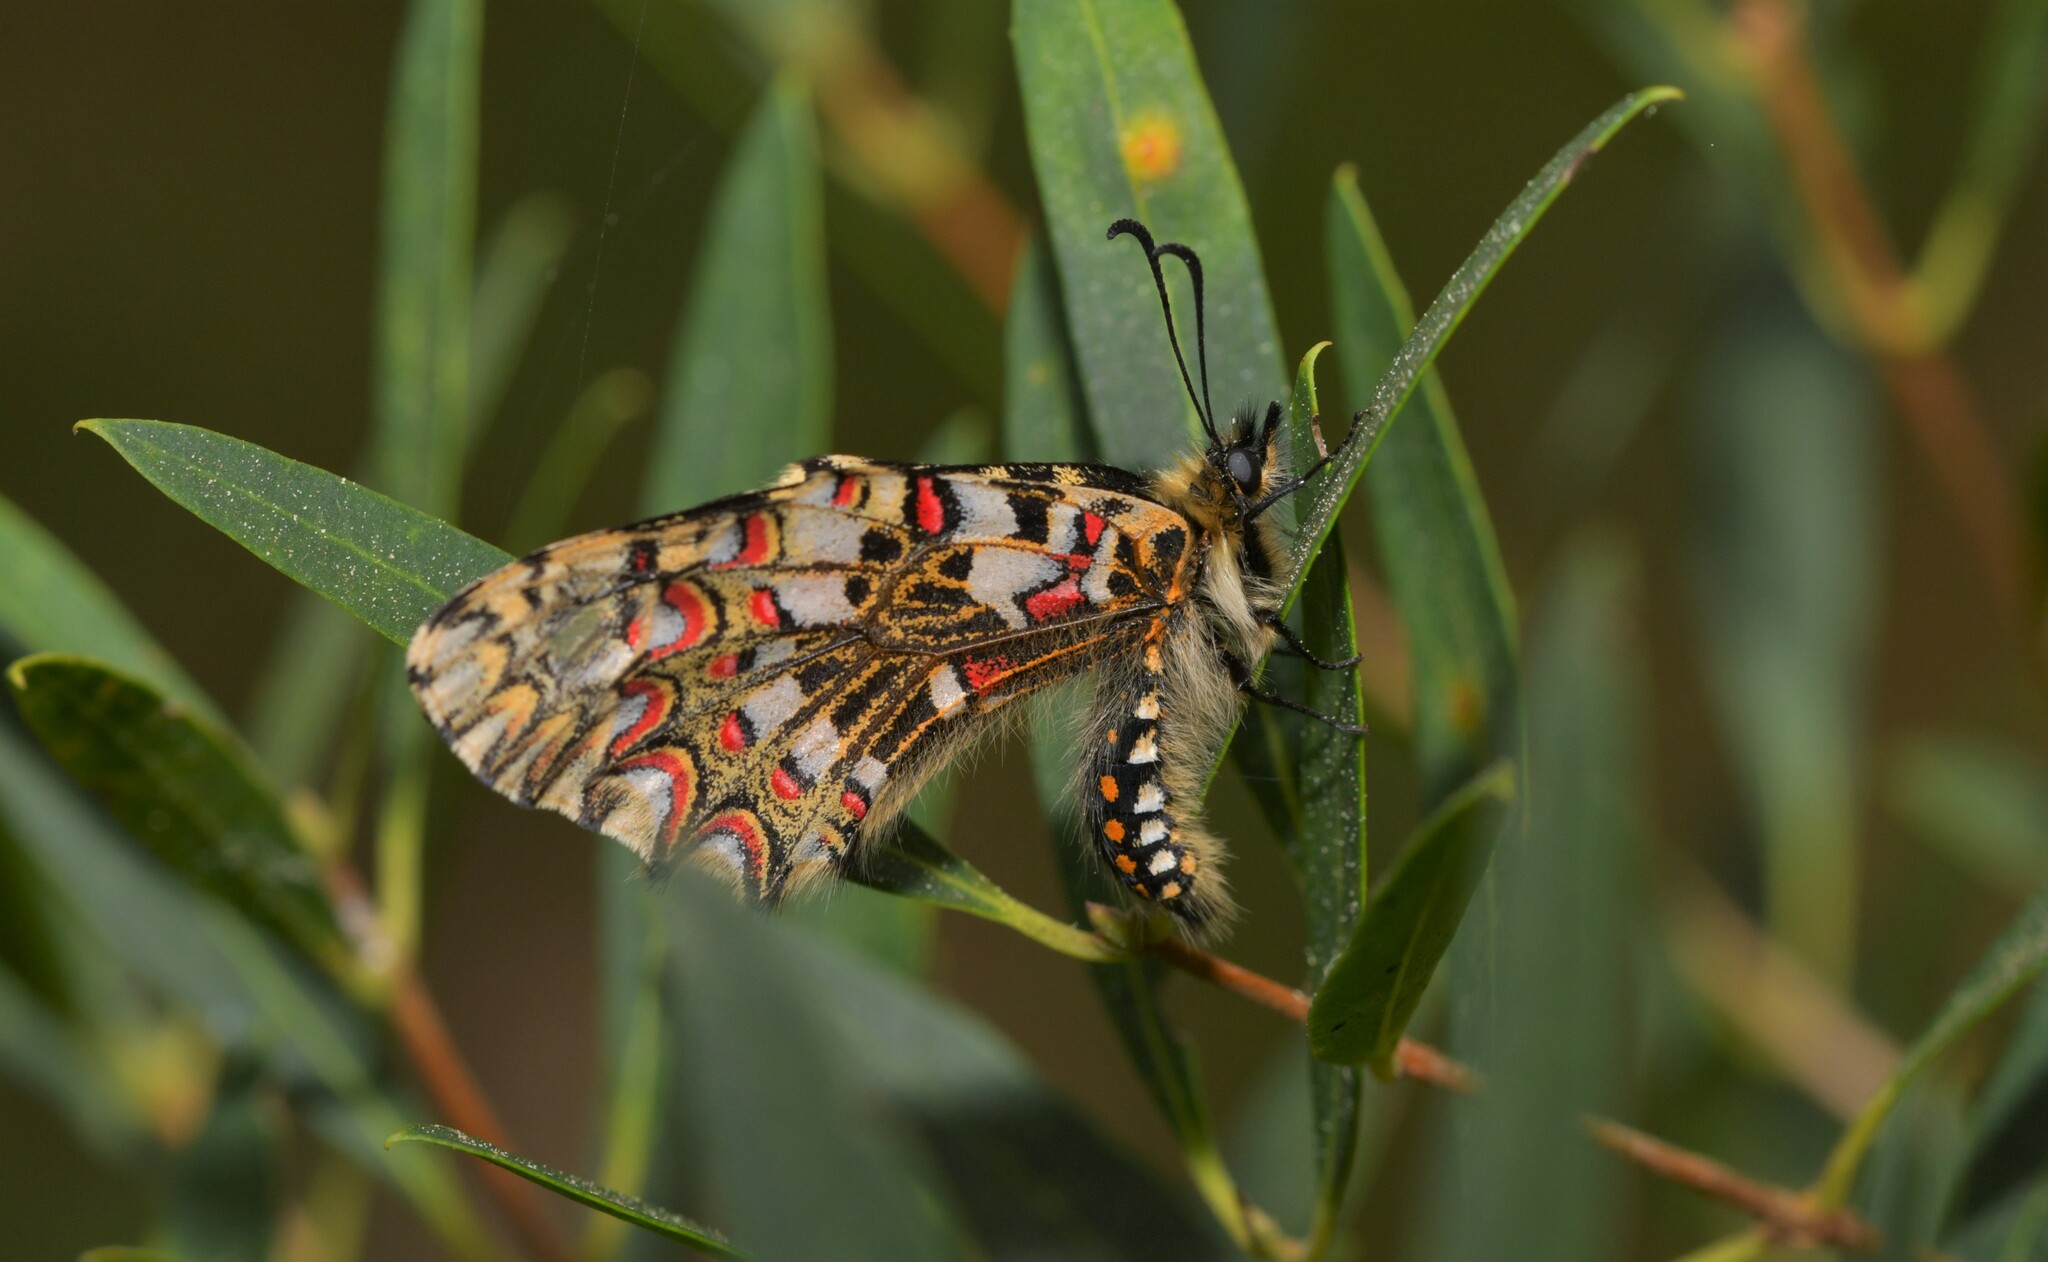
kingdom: Animalia
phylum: Arthropoda
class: Insecta
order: Lepidoptera
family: Papilionidae
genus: Zerynthia
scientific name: Zerynthia rumina
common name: Spanish festoon
